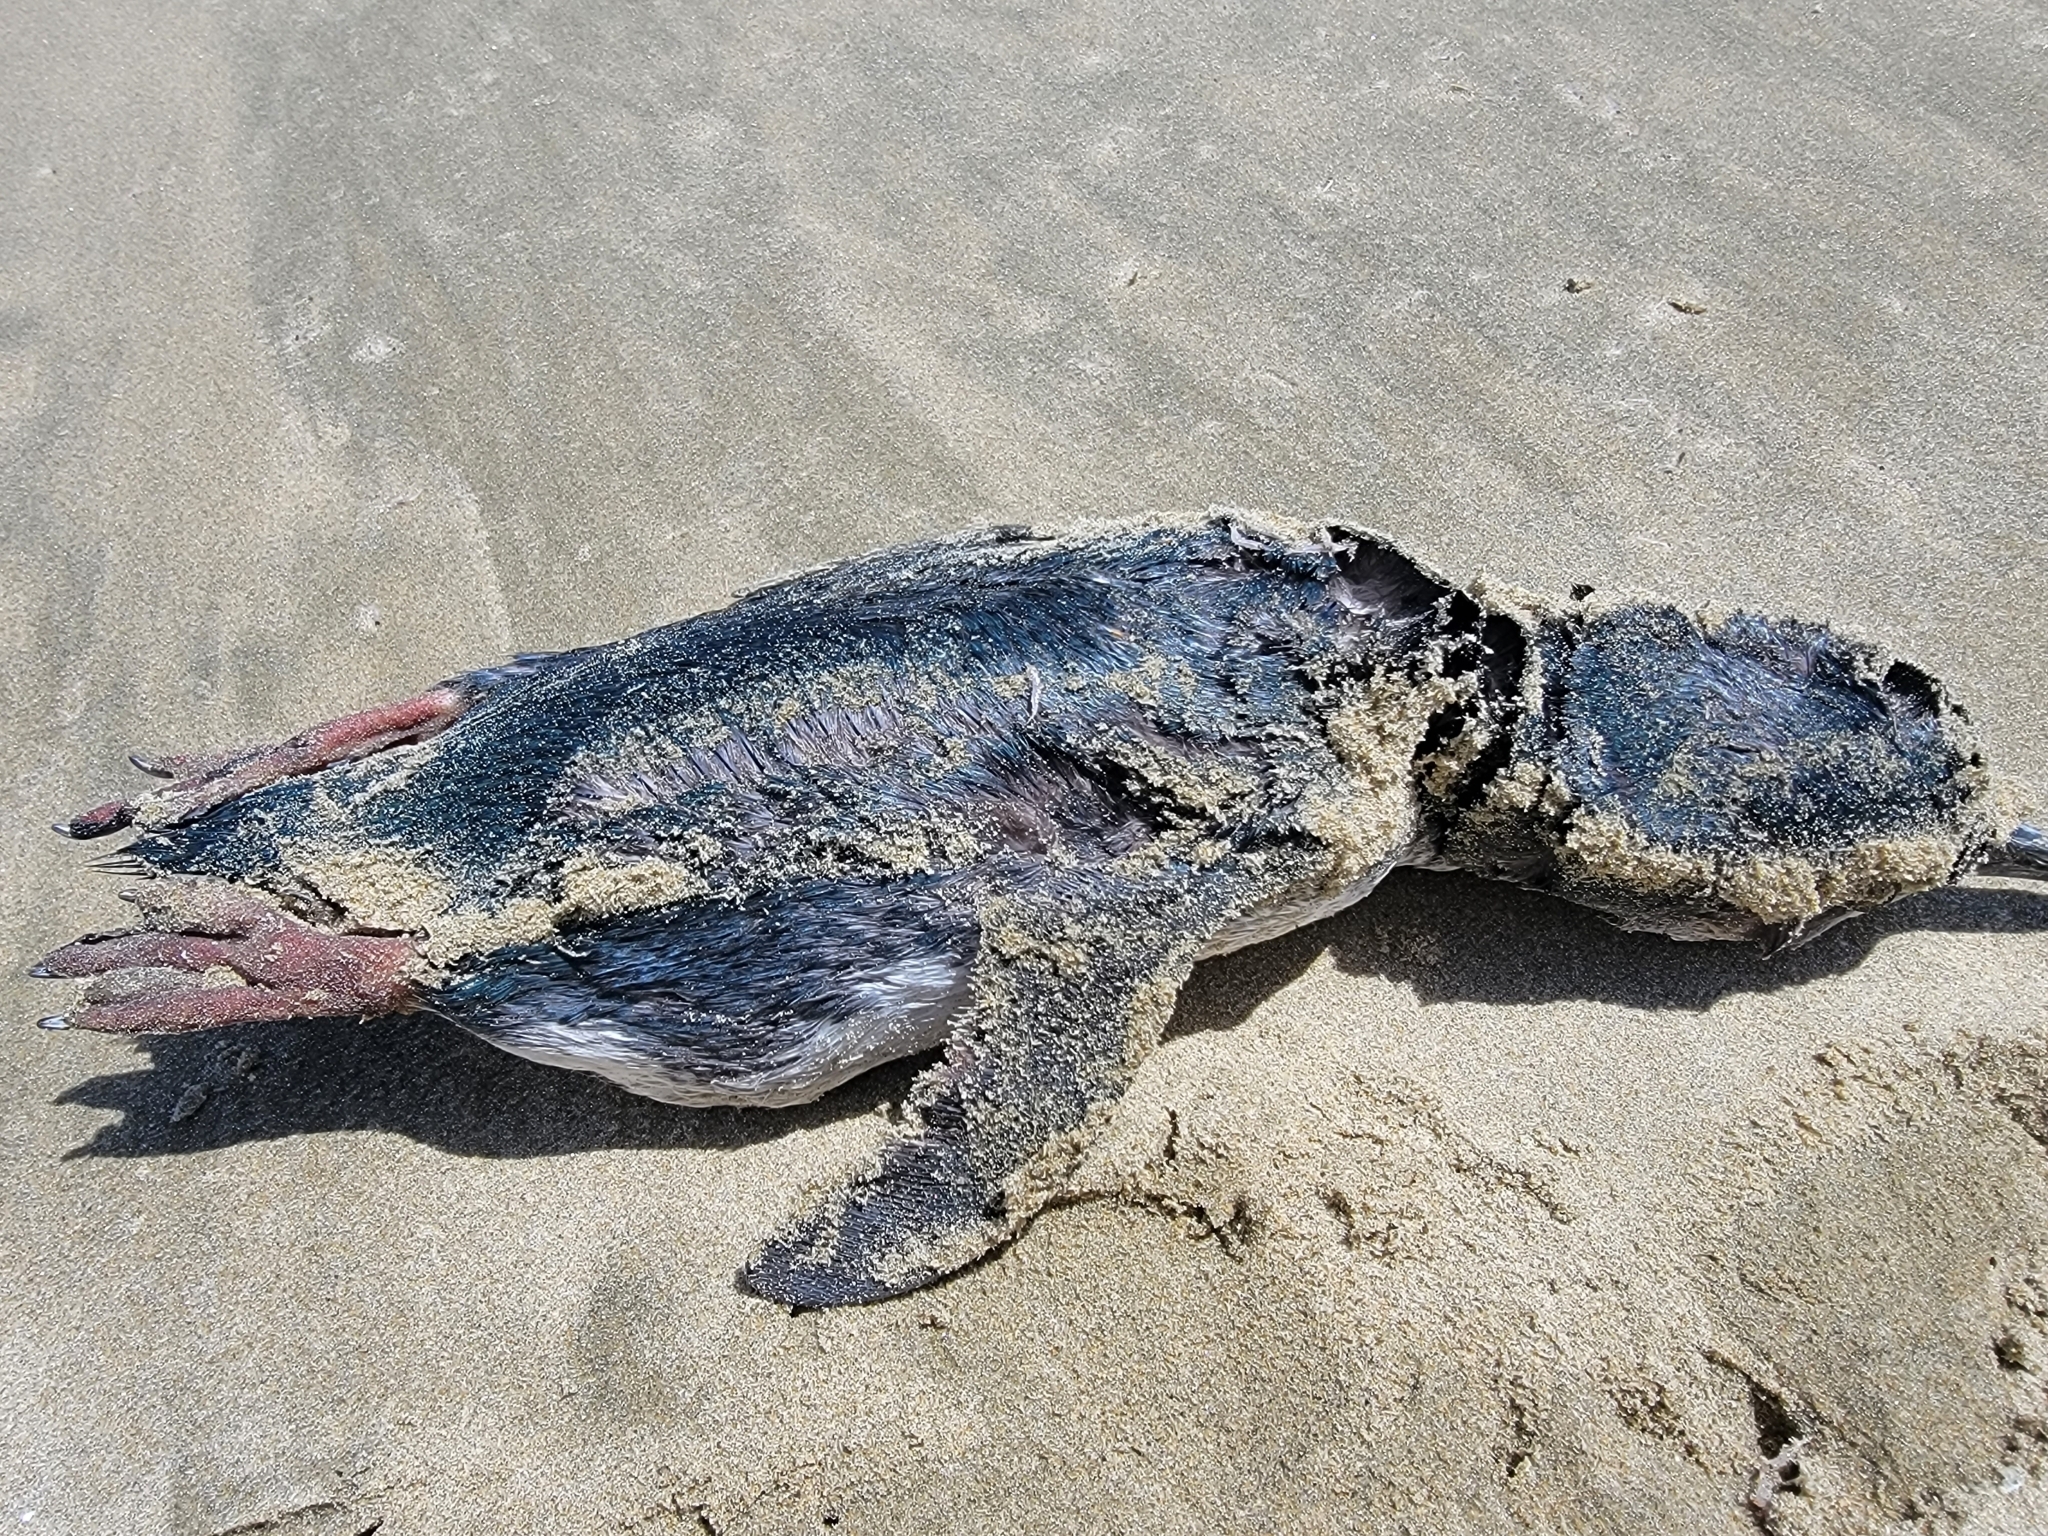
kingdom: Animalia
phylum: Chordata
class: Aves
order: Sphenisciformes
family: Spheniscidae
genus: Eudyptula
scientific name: Eudyptula minor
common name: Little penguin
